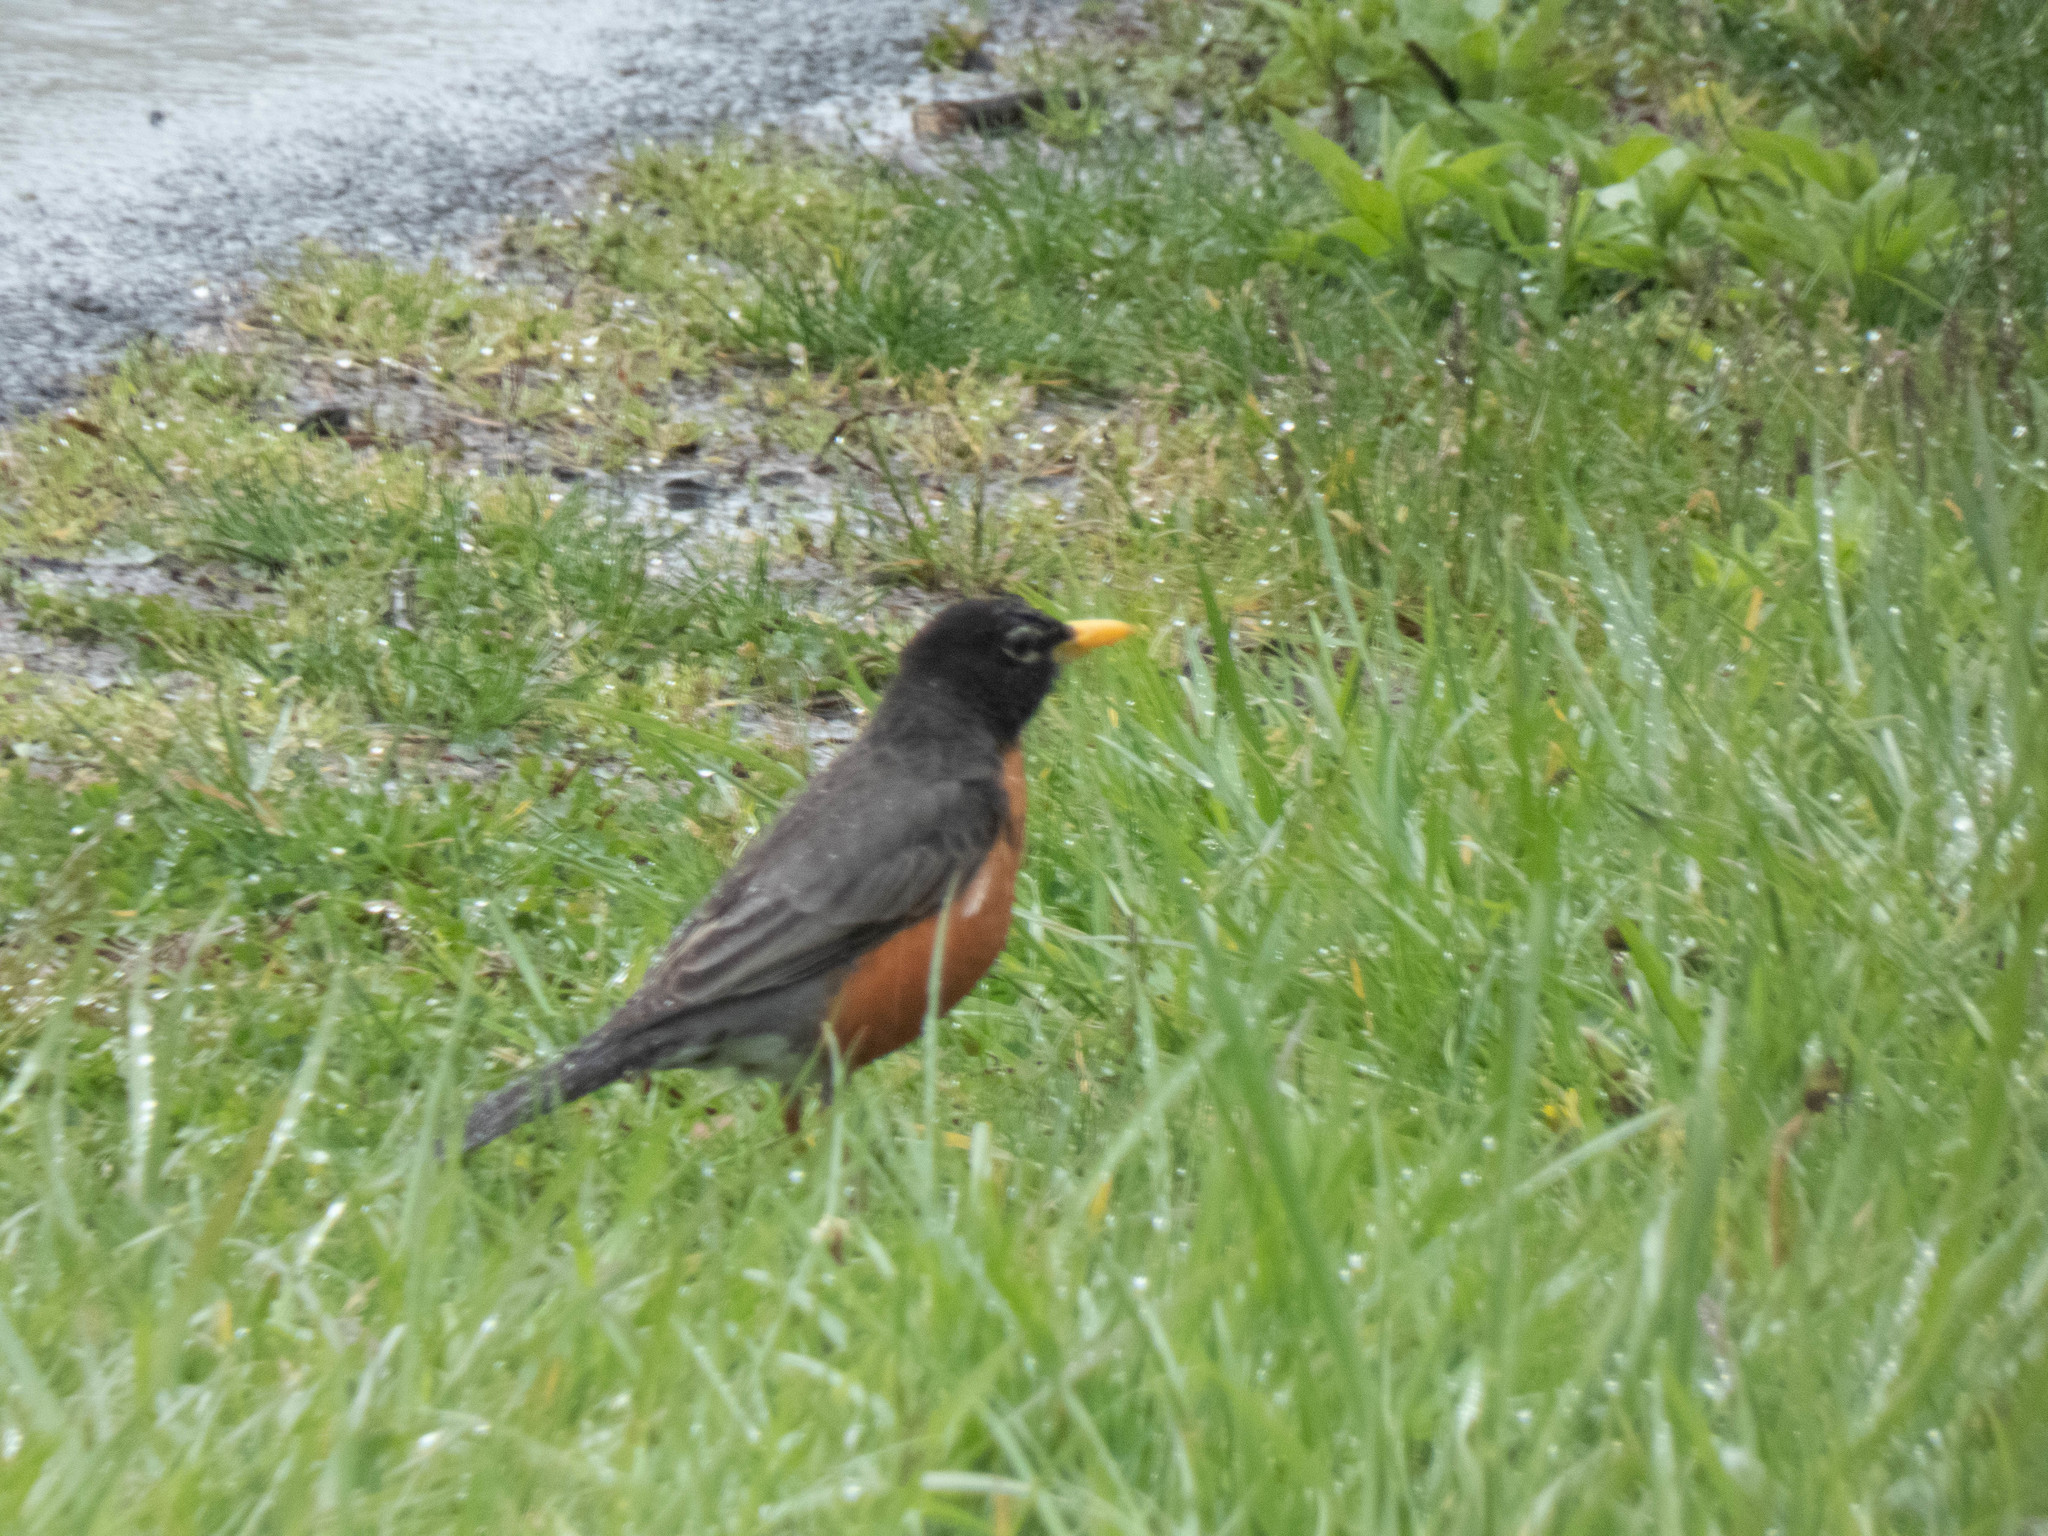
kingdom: Animalia
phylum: Chordata
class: Aves
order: Passeriformes
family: Turdidae
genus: Turdus
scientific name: Turdus migratorius
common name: American robin
